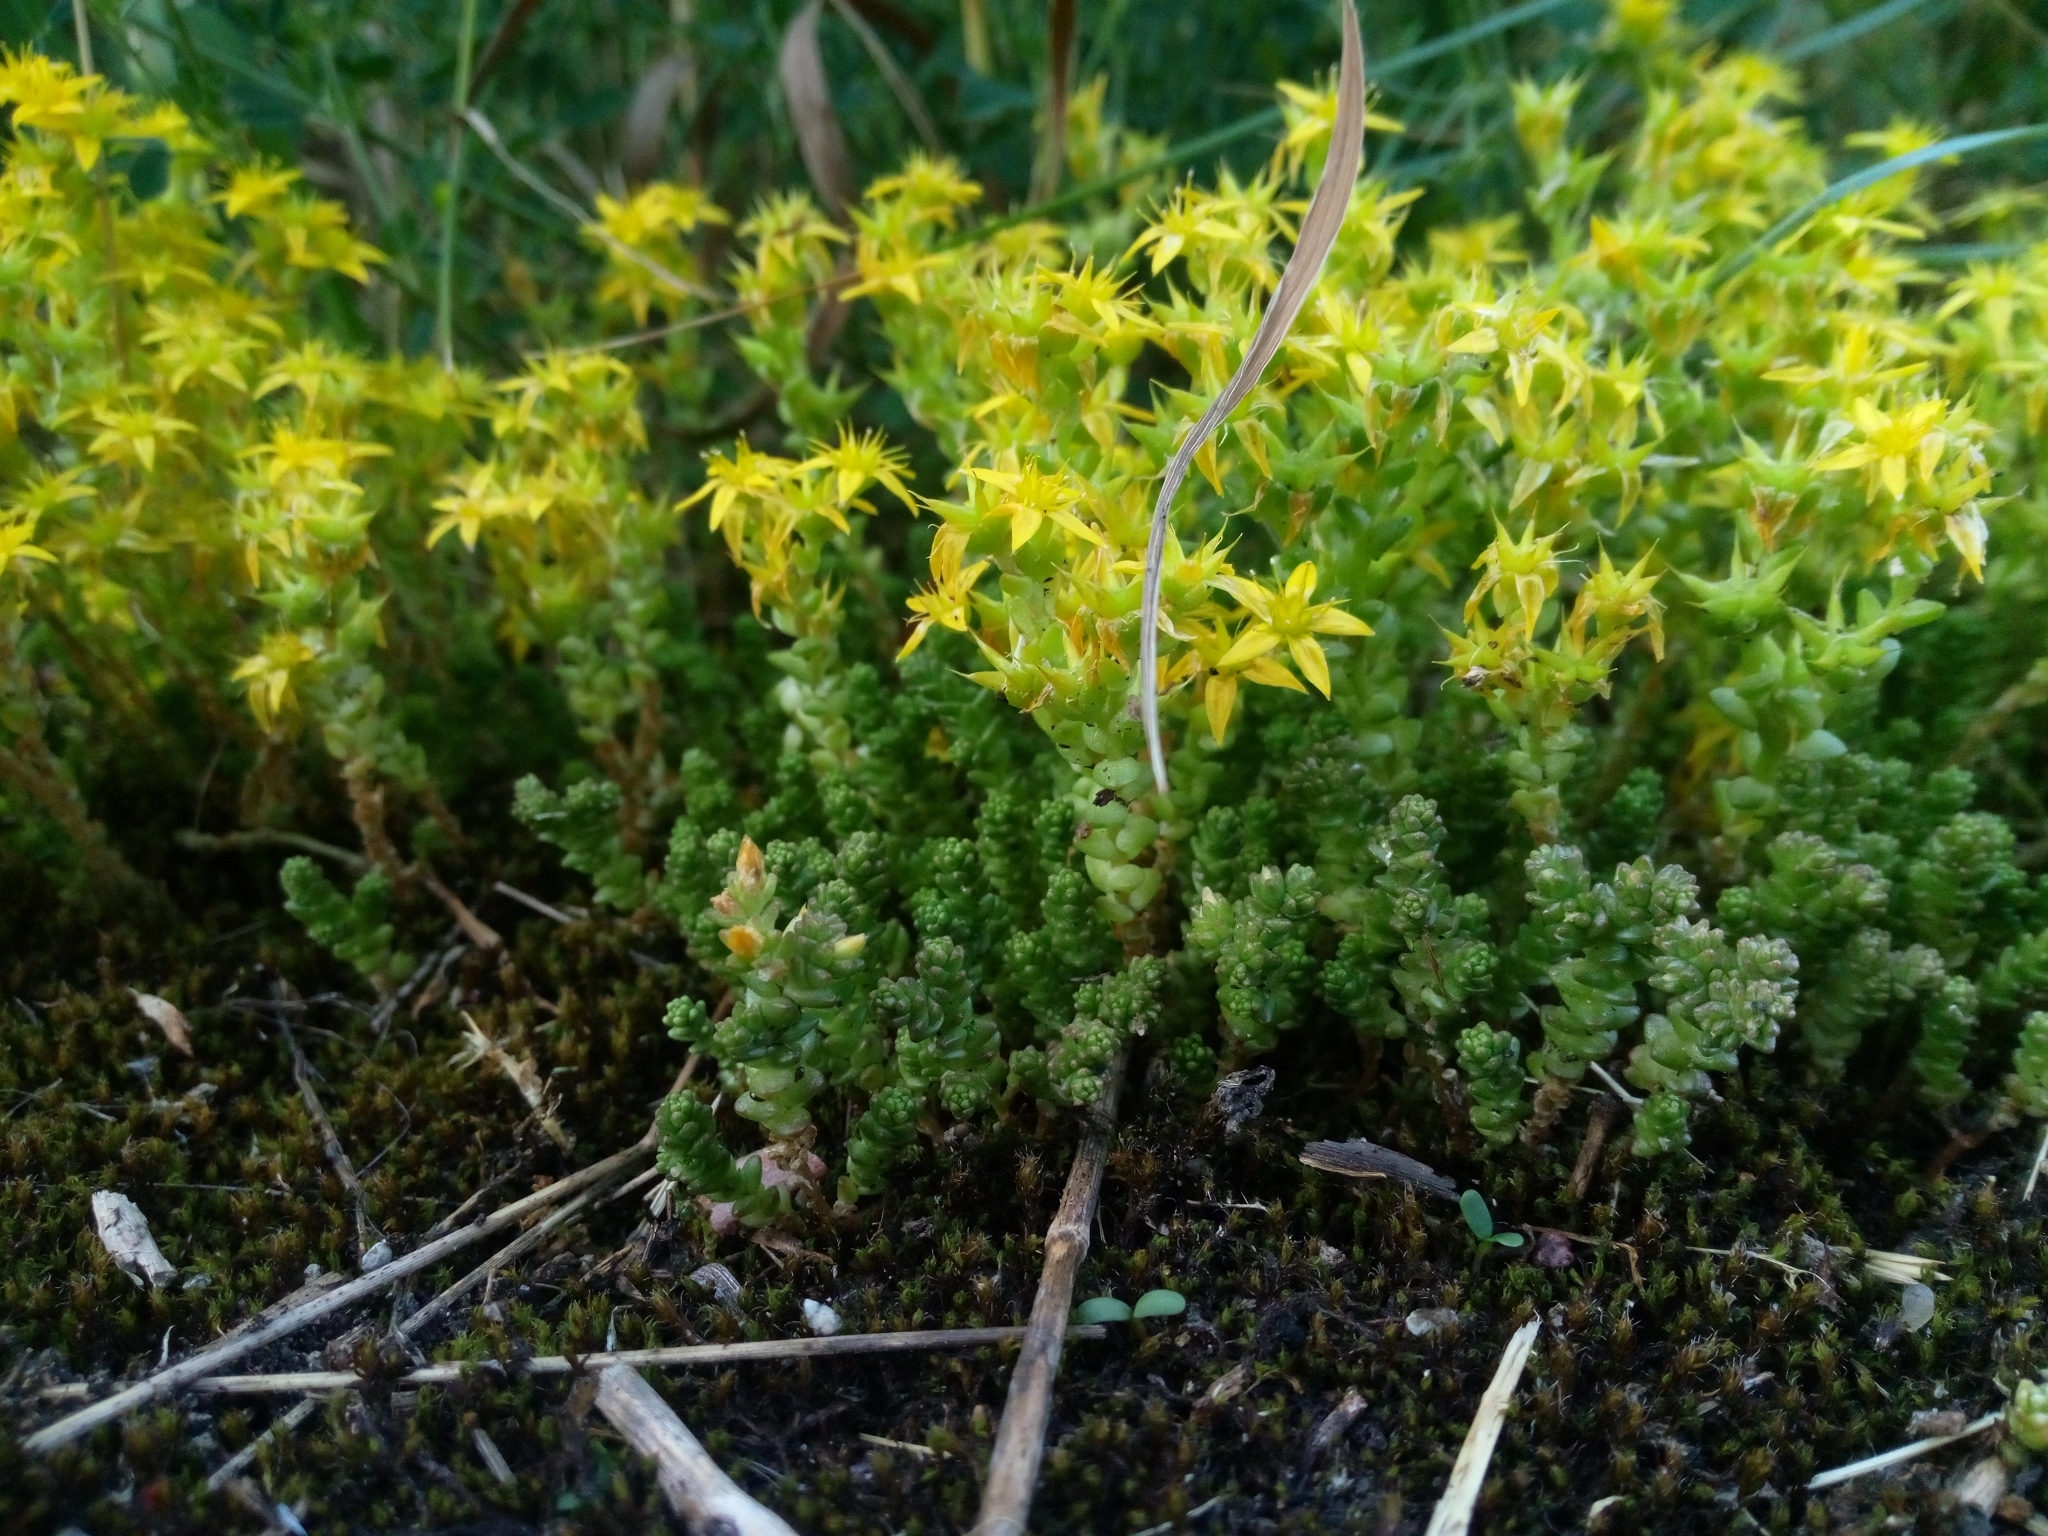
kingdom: Plantae
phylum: Tracheophyta
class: Magnoliopsida
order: Saxifragales
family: Crassulaceae
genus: Sedum
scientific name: Sedum acre
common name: Biting stonecrop
